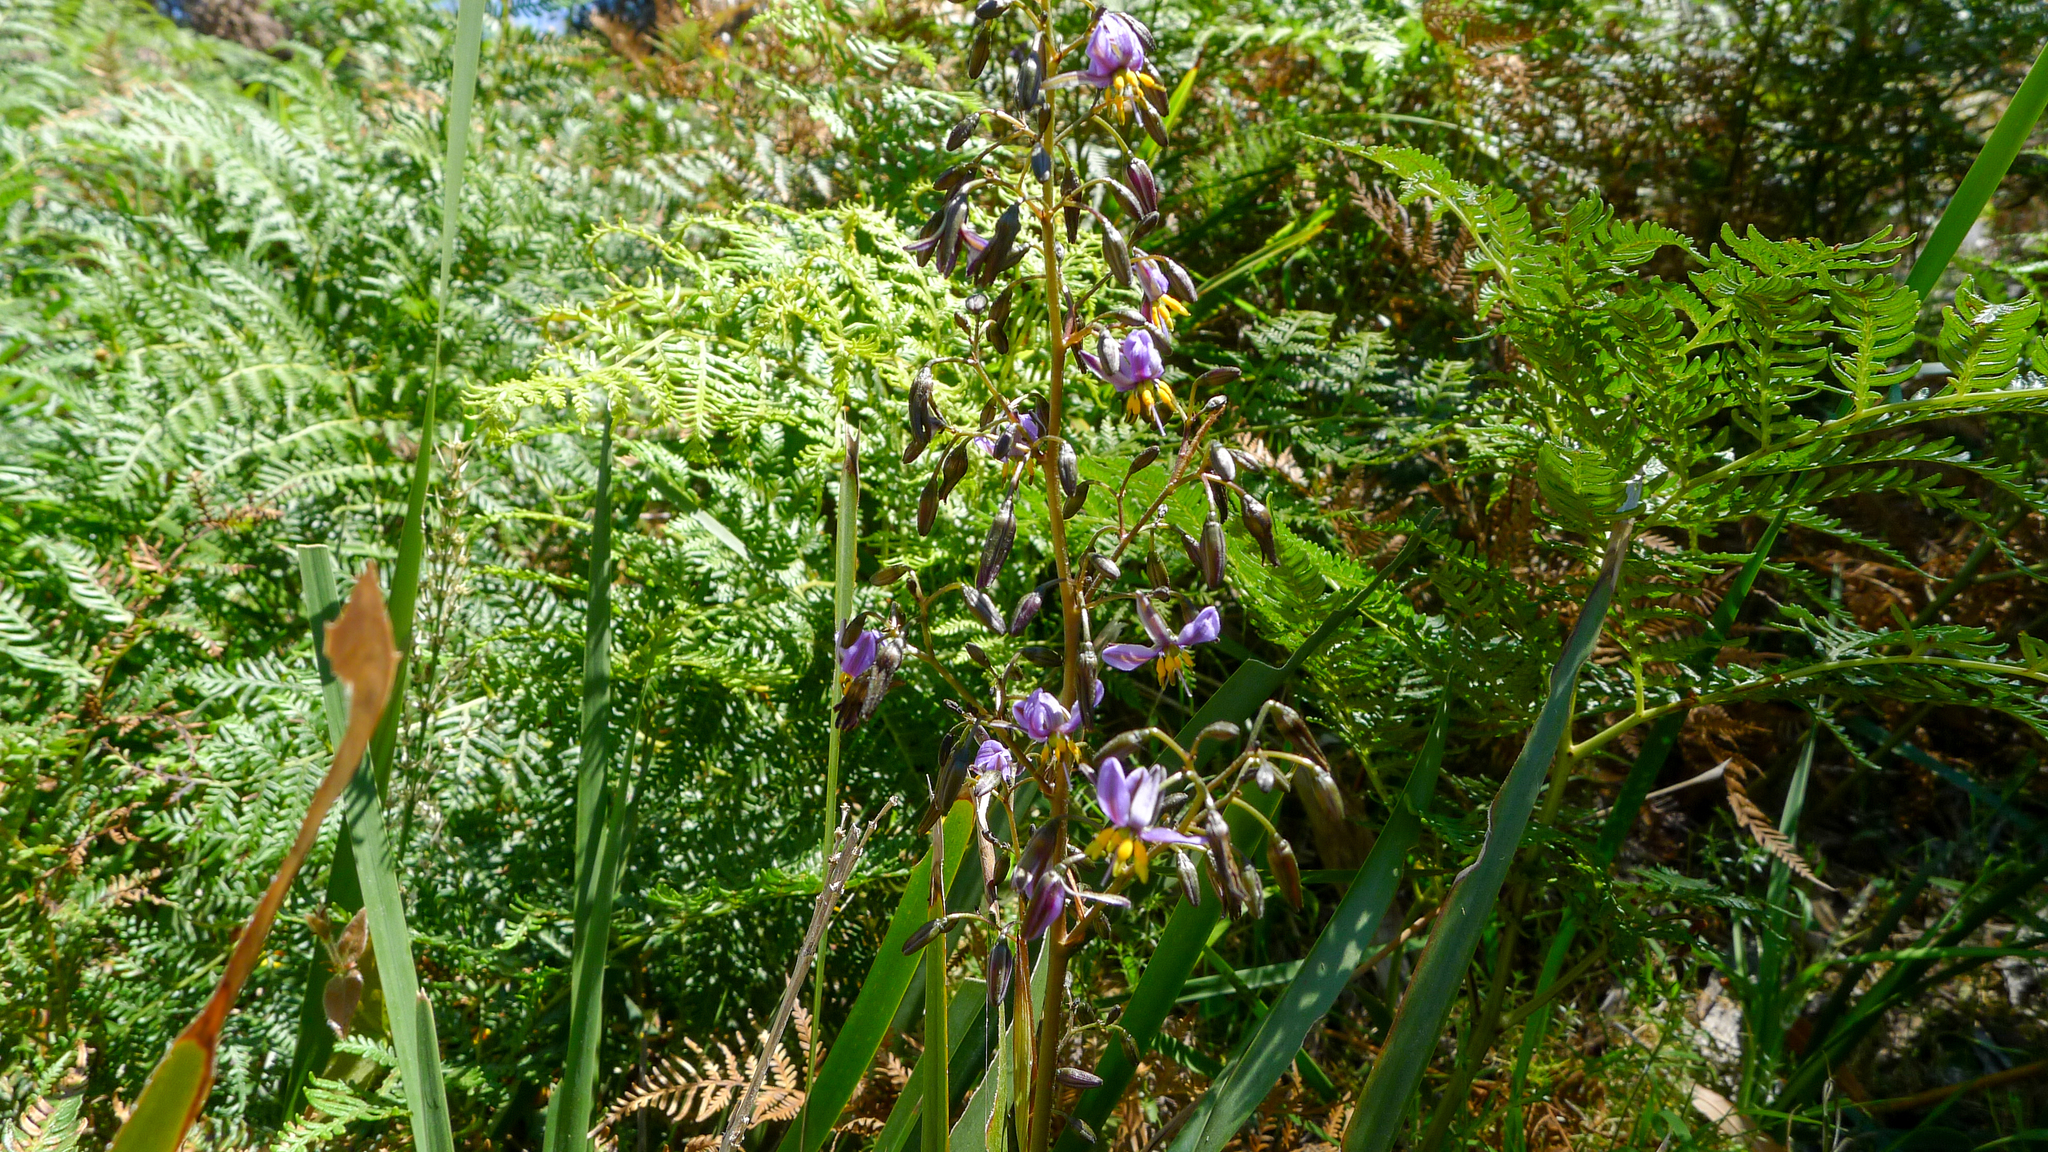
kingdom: Plantae
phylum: Tracheophyta
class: Liliopsida
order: Asparagales
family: Asphodelaceae
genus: Dianella
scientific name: Dianella tasmanica
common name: Tasman flax-lily
